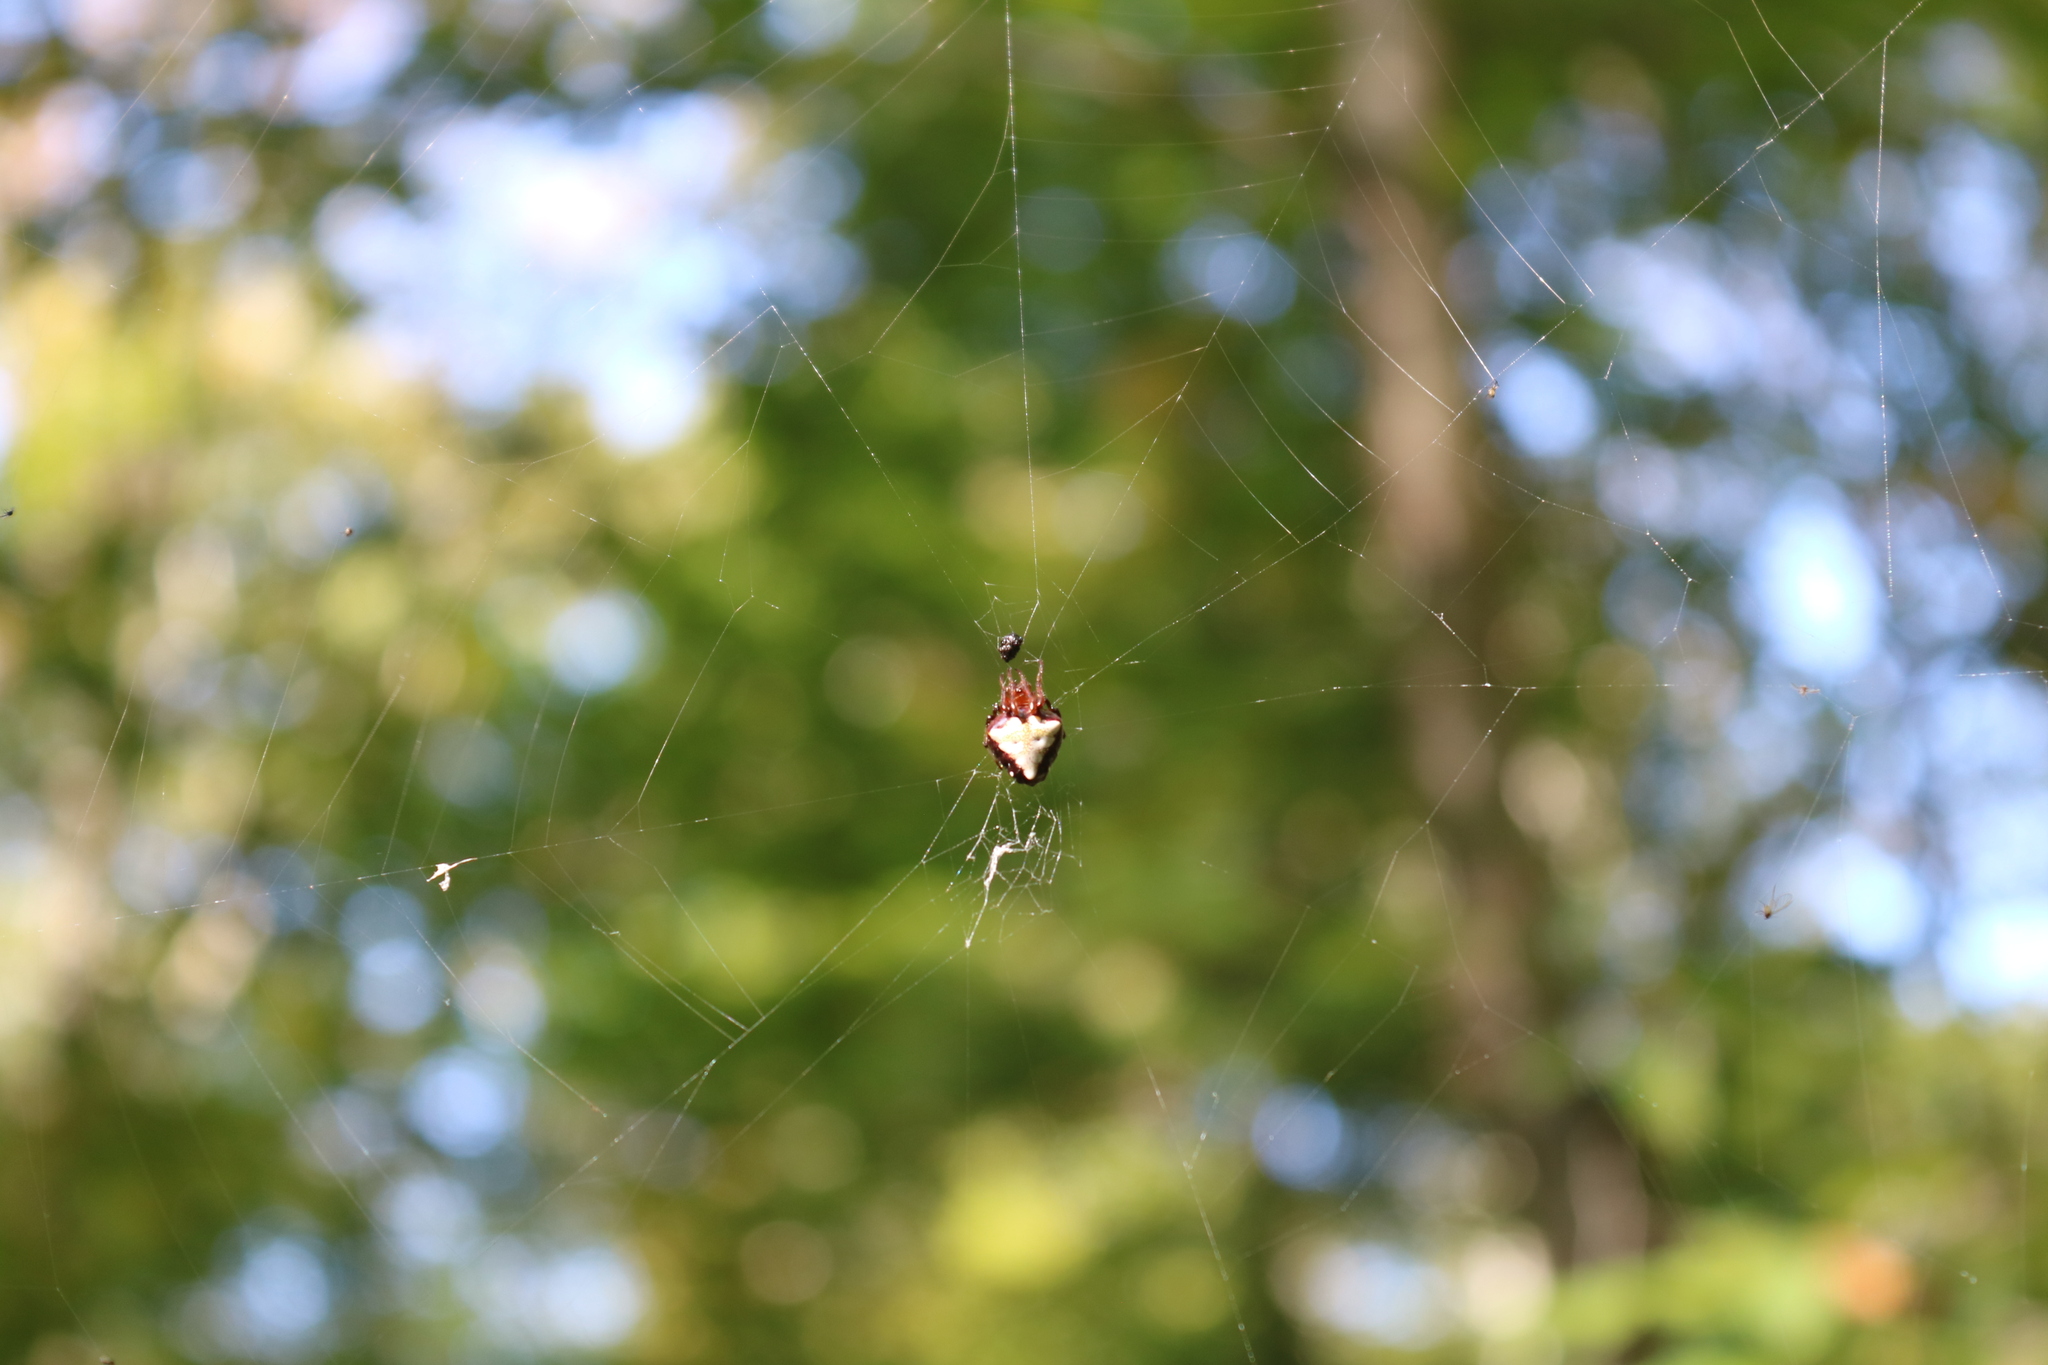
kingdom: Animalia
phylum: Arthropoda
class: Arachnida
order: Araneae
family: Araneidae
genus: Verrucosa
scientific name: Verrucosa arenata
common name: Orb weavers
